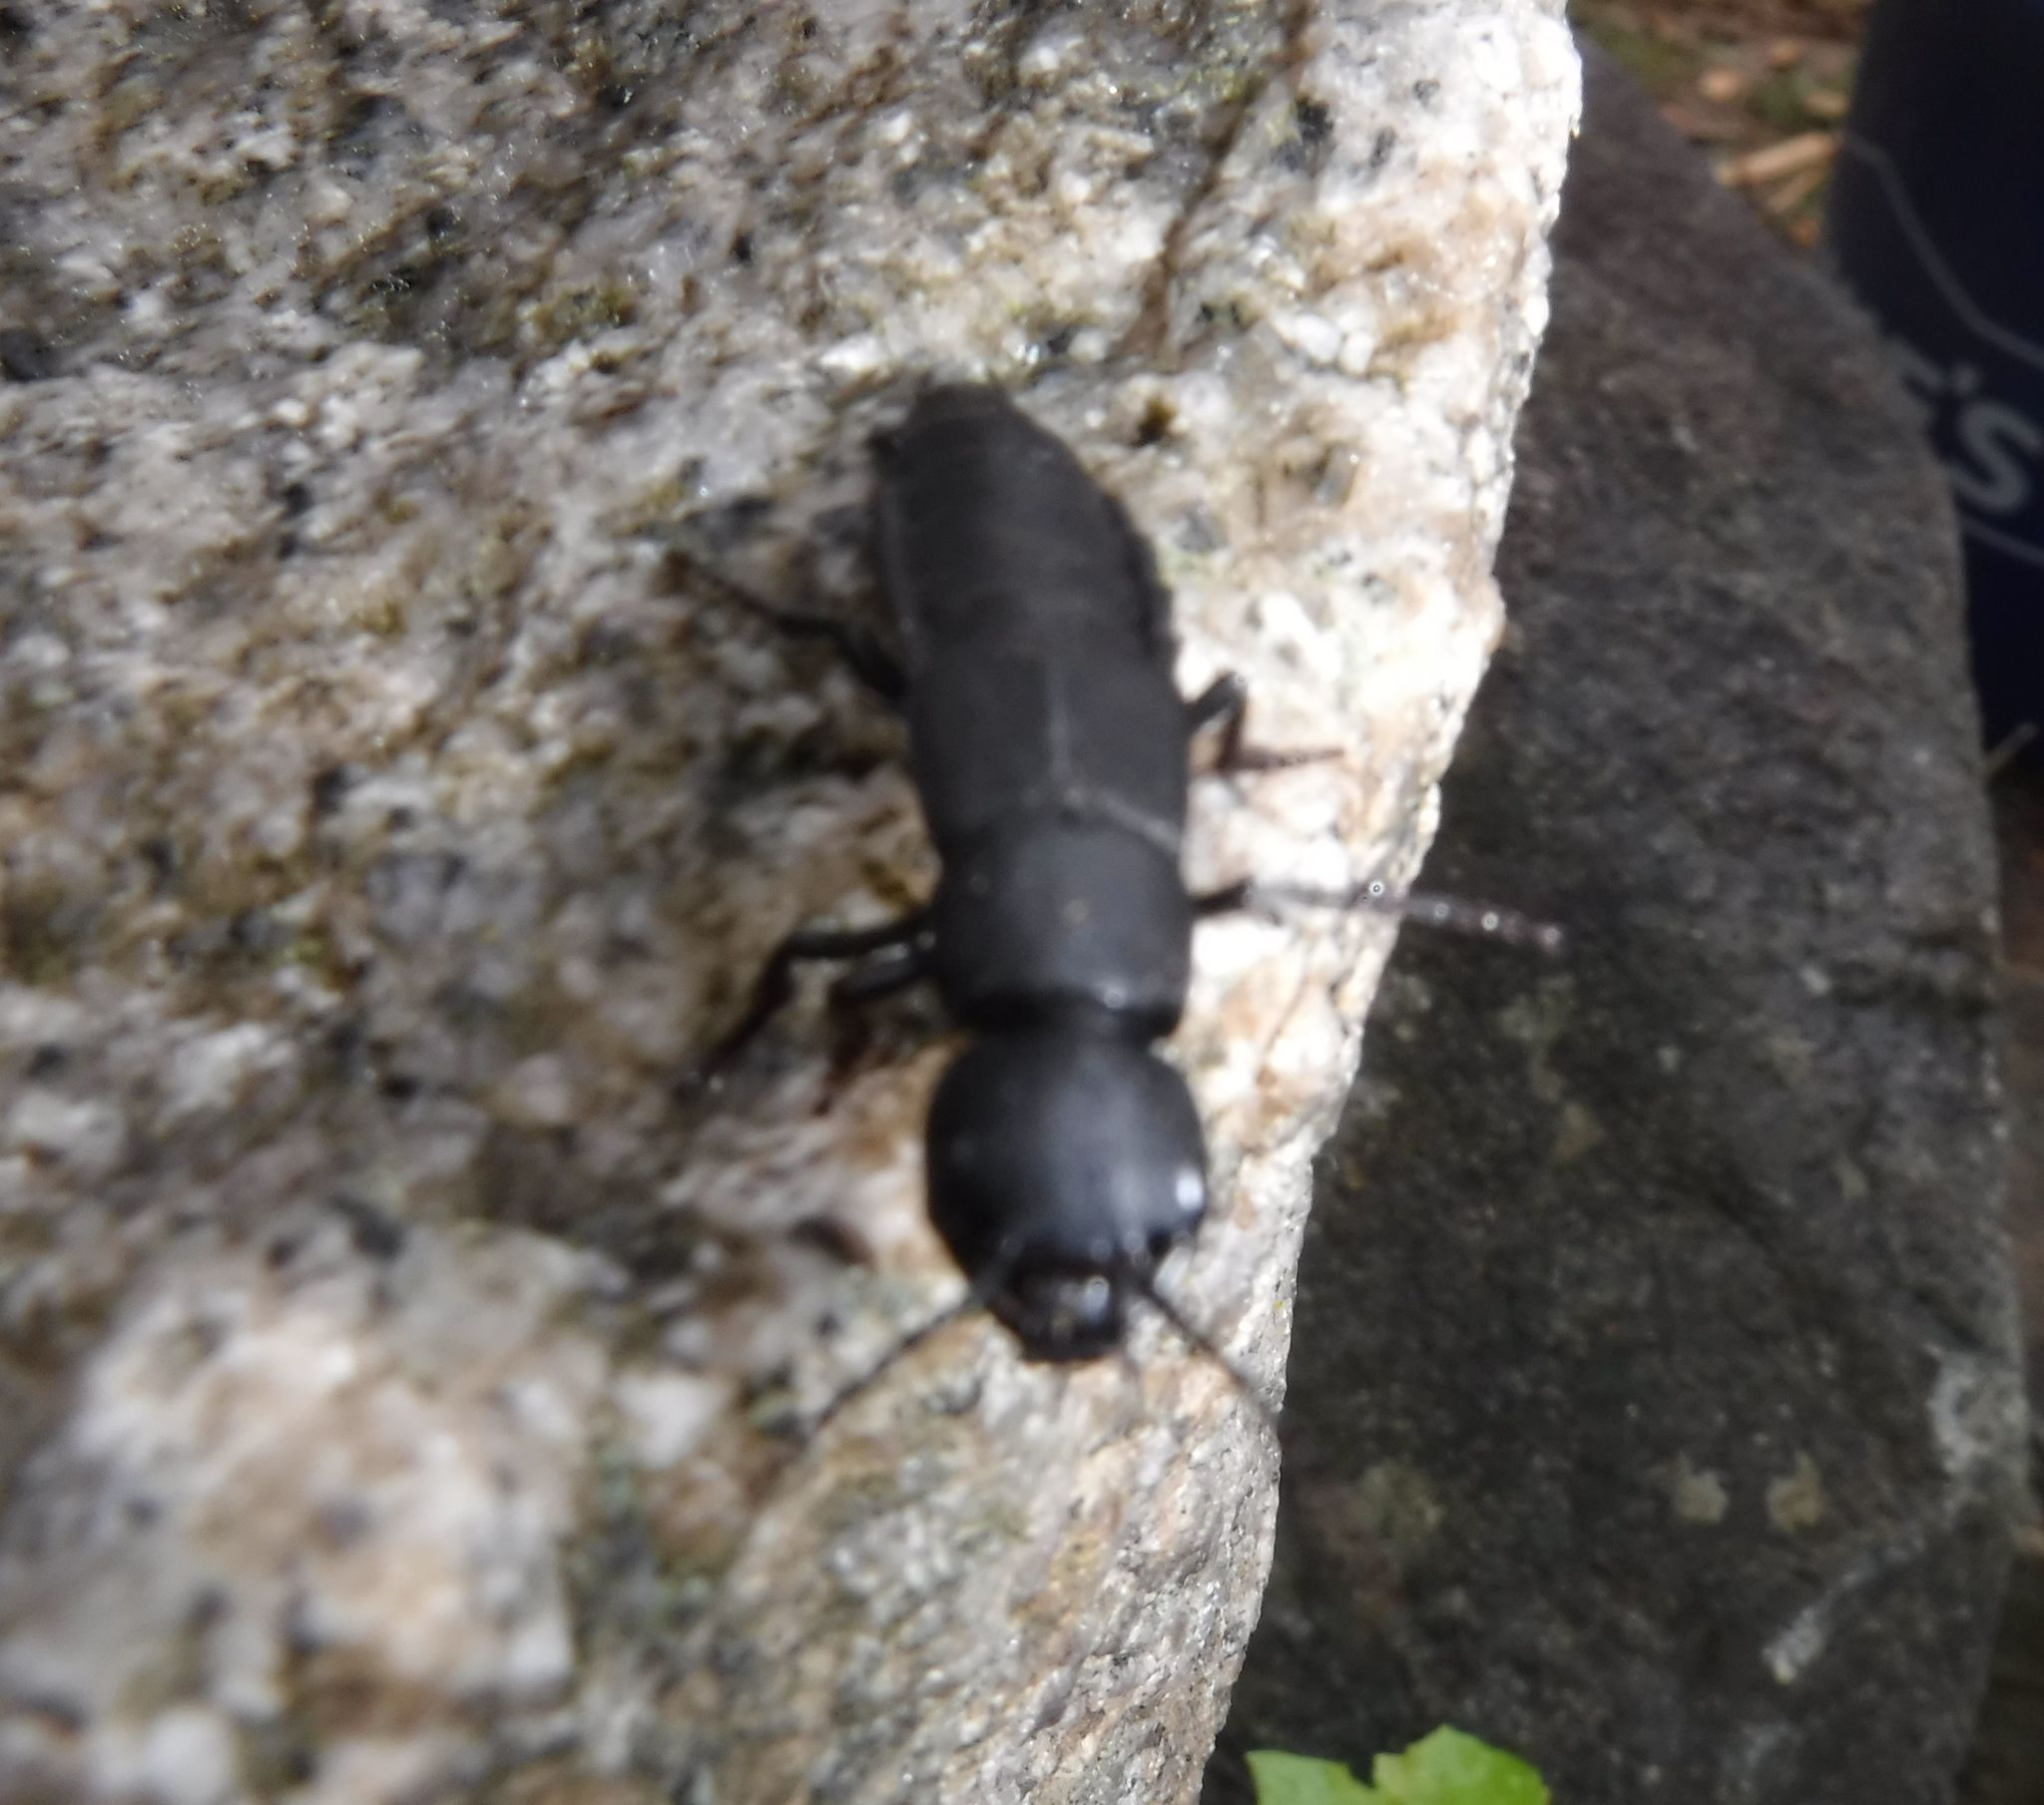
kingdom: Animalia
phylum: Arthropoda
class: Insecta
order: Coleoptera
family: Staphylinidae
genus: Ocypus
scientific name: Ocypus olens
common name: Devil's coach-horse
